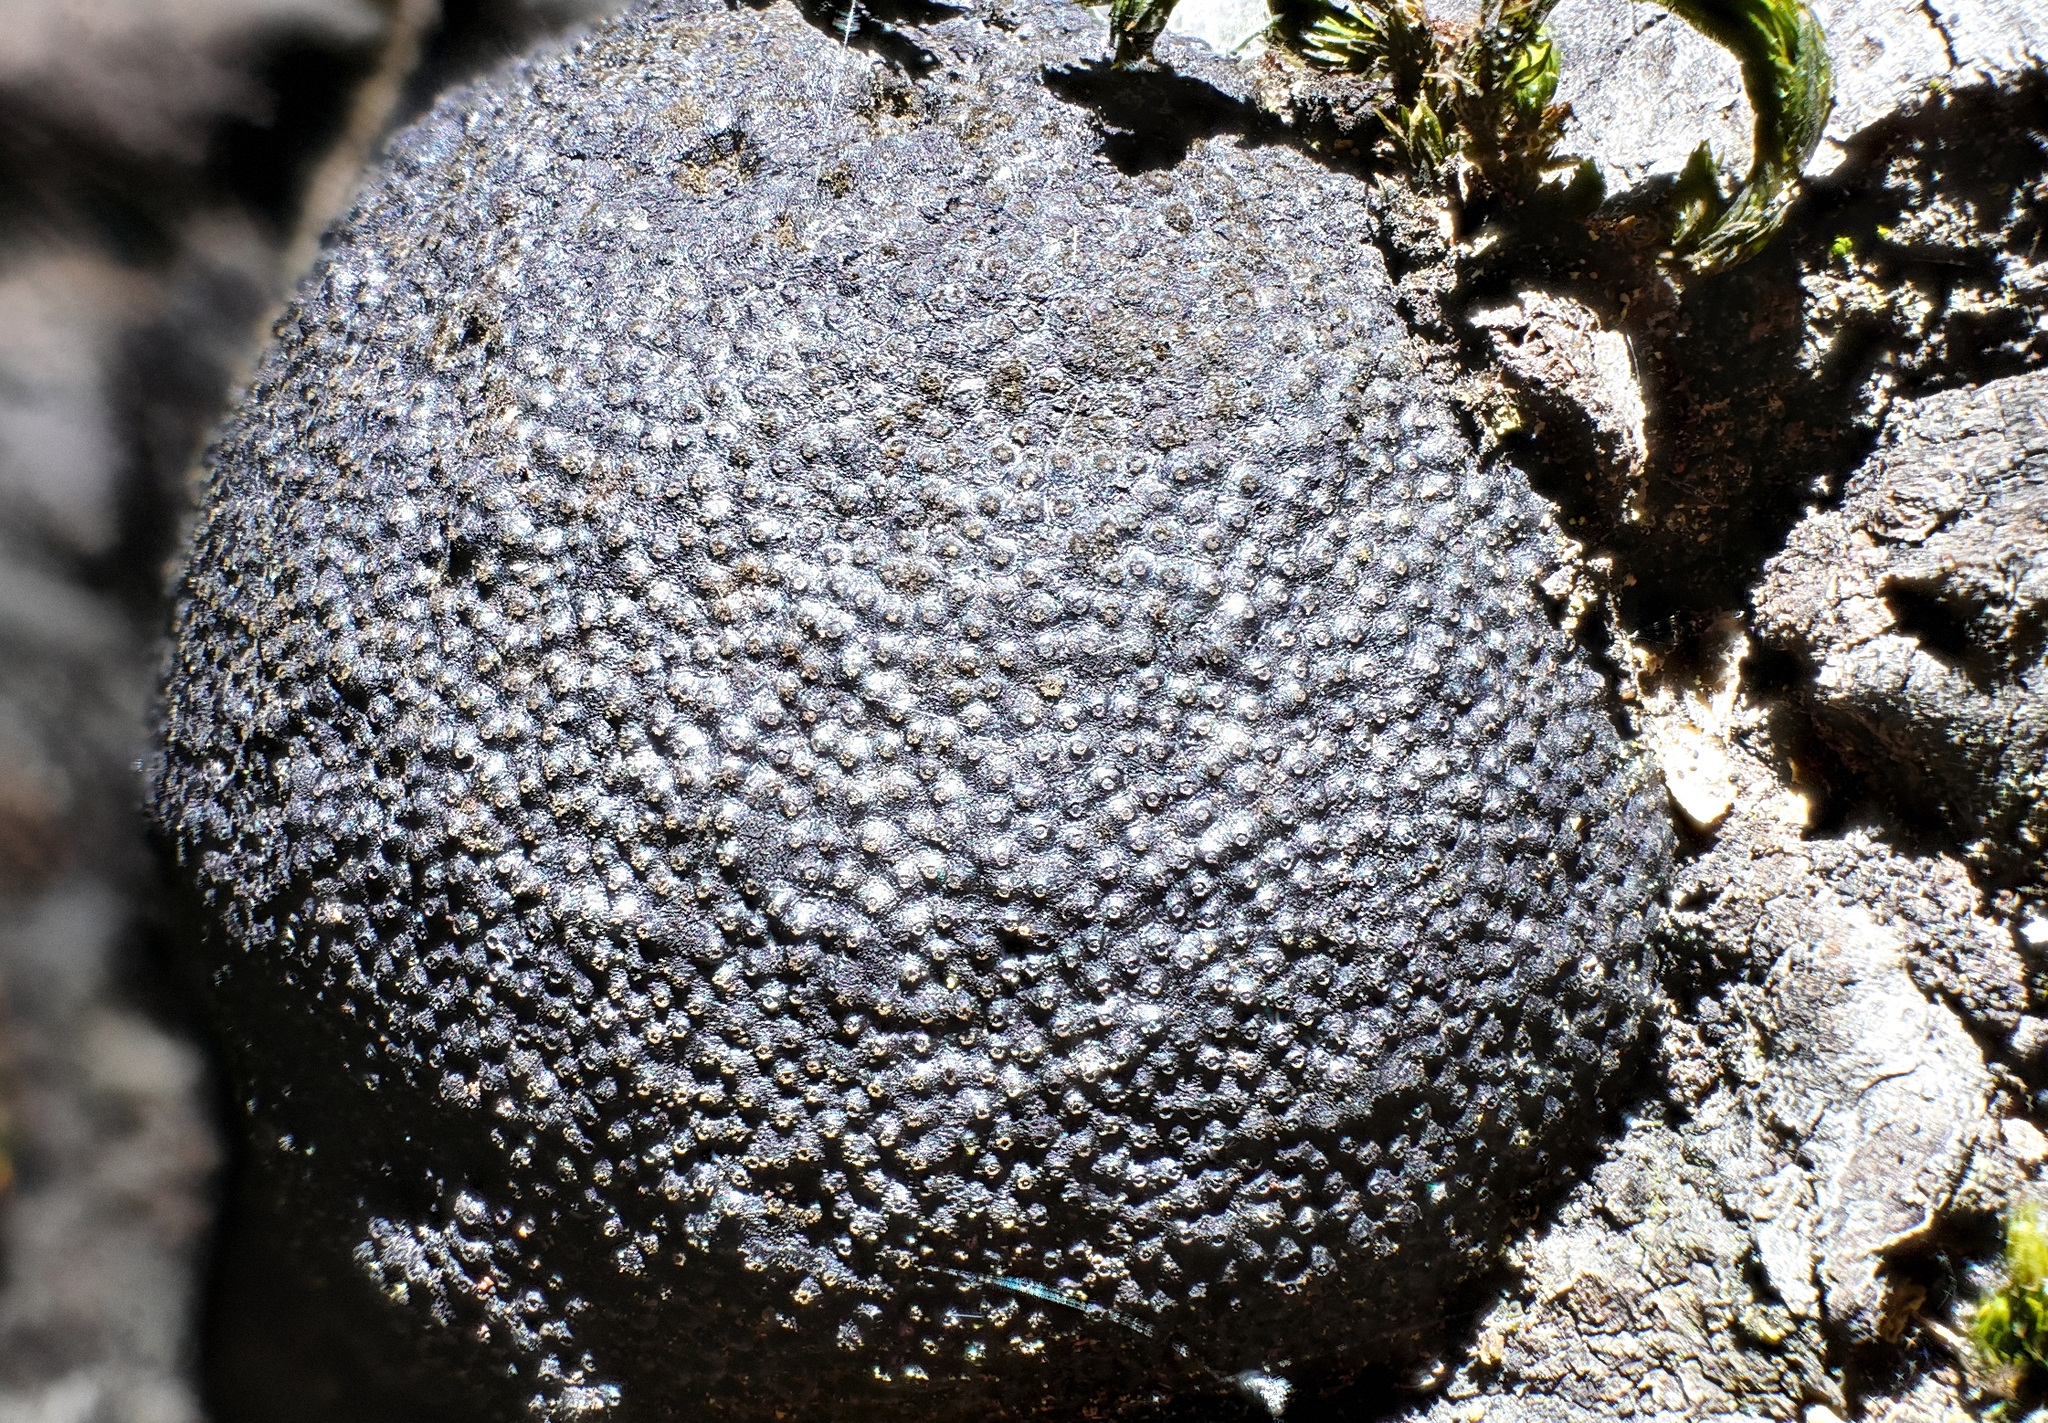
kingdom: Fungi
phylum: Ascomycota
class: Sordariomycetes
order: Xylariales
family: Hypoxylaceae
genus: Annulohypoxylon
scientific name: Annulohypoxylon thouarsianum
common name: Cramp balls
